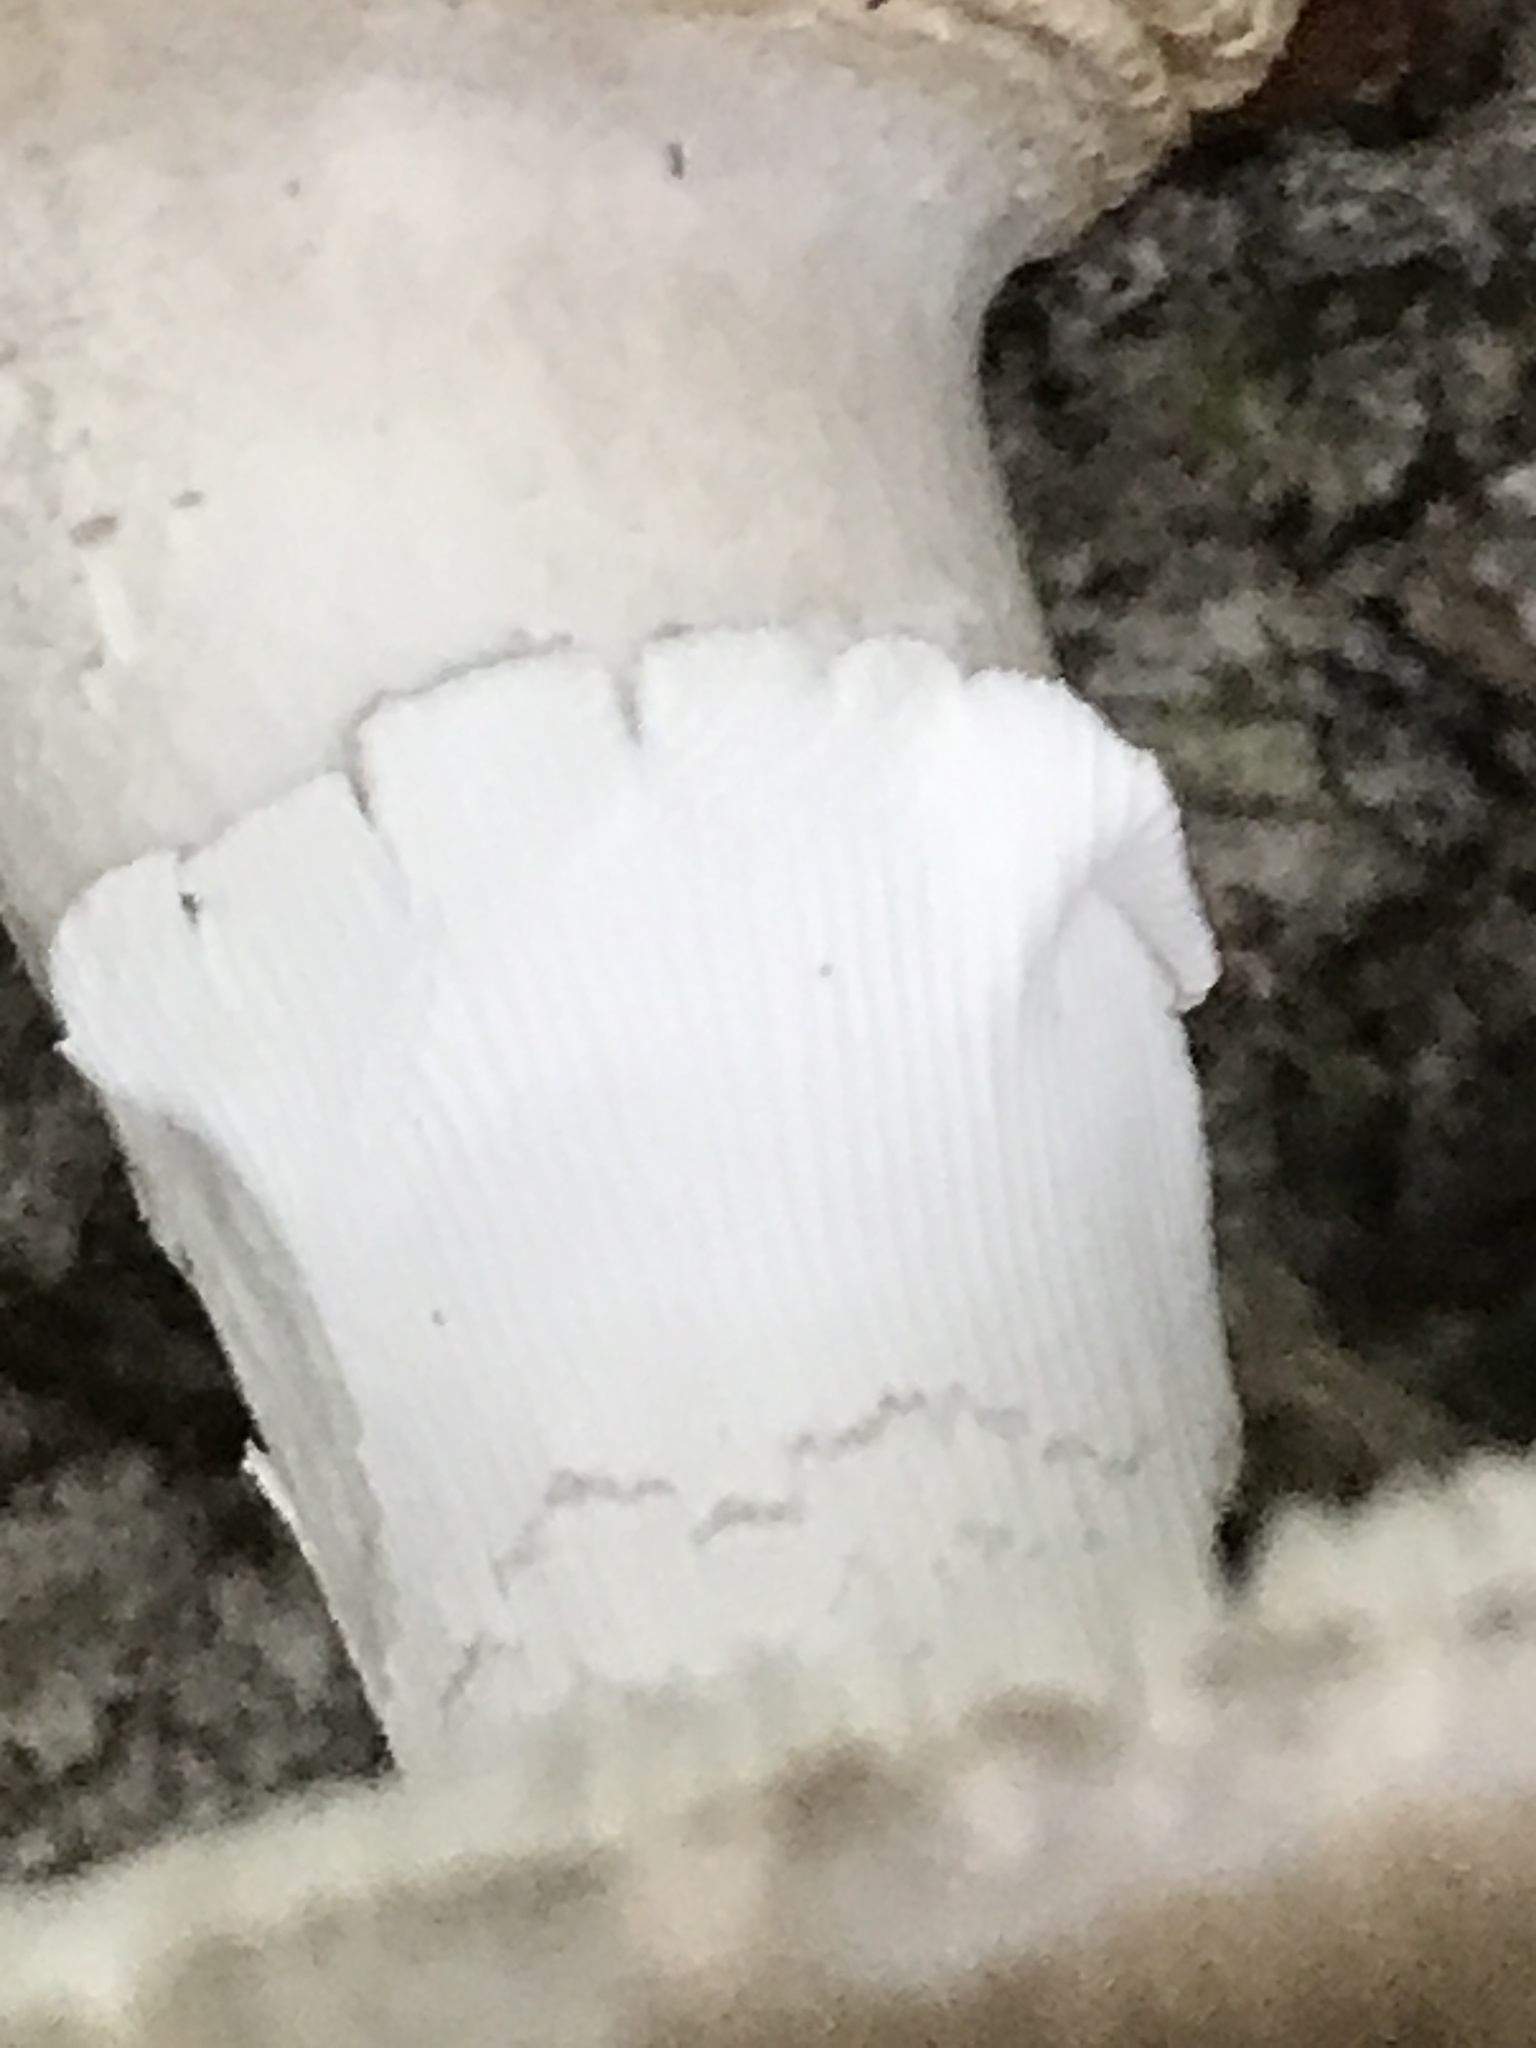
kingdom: Fungi
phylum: Basidiomycota
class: Agaricomycetes
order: Agaricales
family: Amanitaceae
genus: Amanita
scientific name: Amanita excelsa
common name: European false blusher
